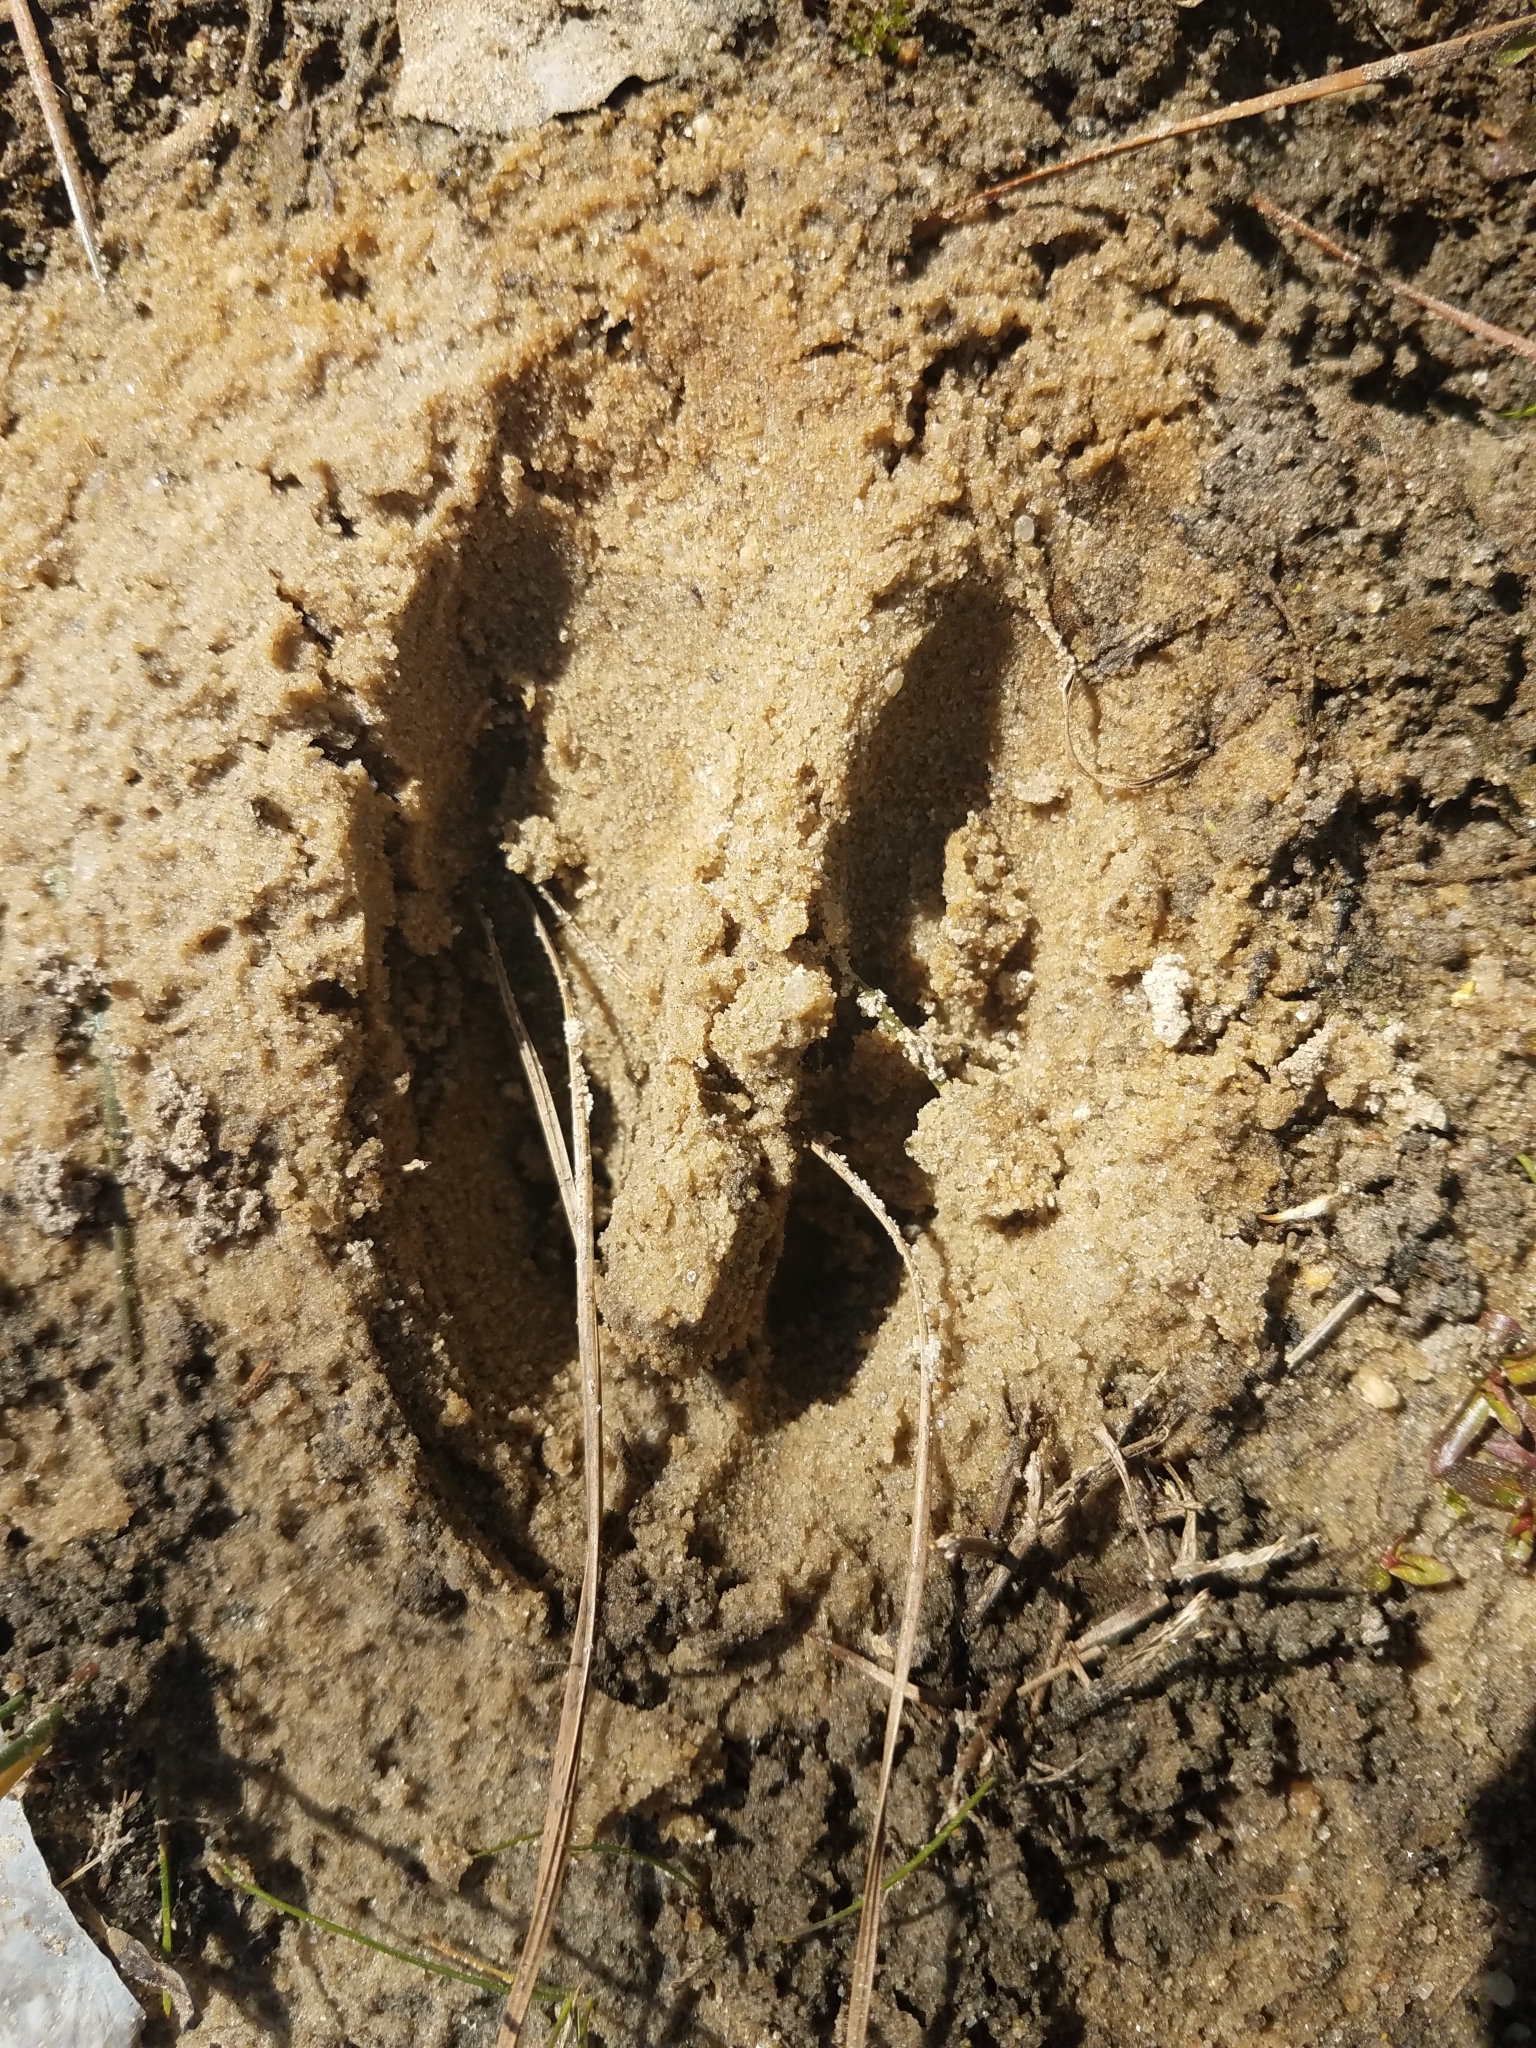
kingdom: Animalia
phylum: Chordata
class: Mammalia
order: Artiodactyla
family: Cervidae
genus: Odocoileus
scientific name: Odocoileus virginianus
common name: White-tailed deer
